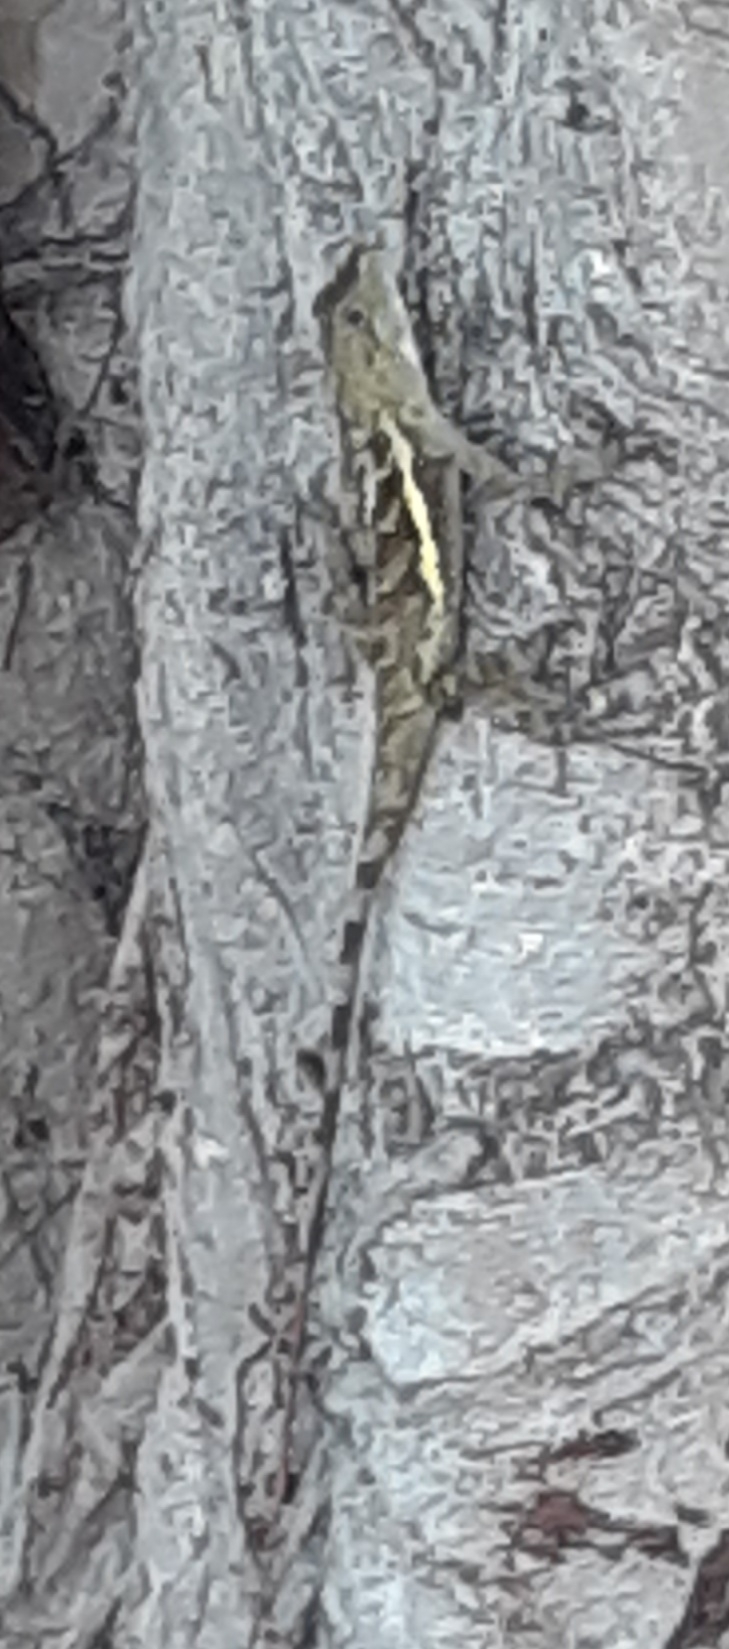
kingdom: Animalia
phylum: Chordata
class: Squamata
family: Agamidae
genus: Diploderma
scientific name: Diploderma swinhonis
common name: Taiwan japalure
